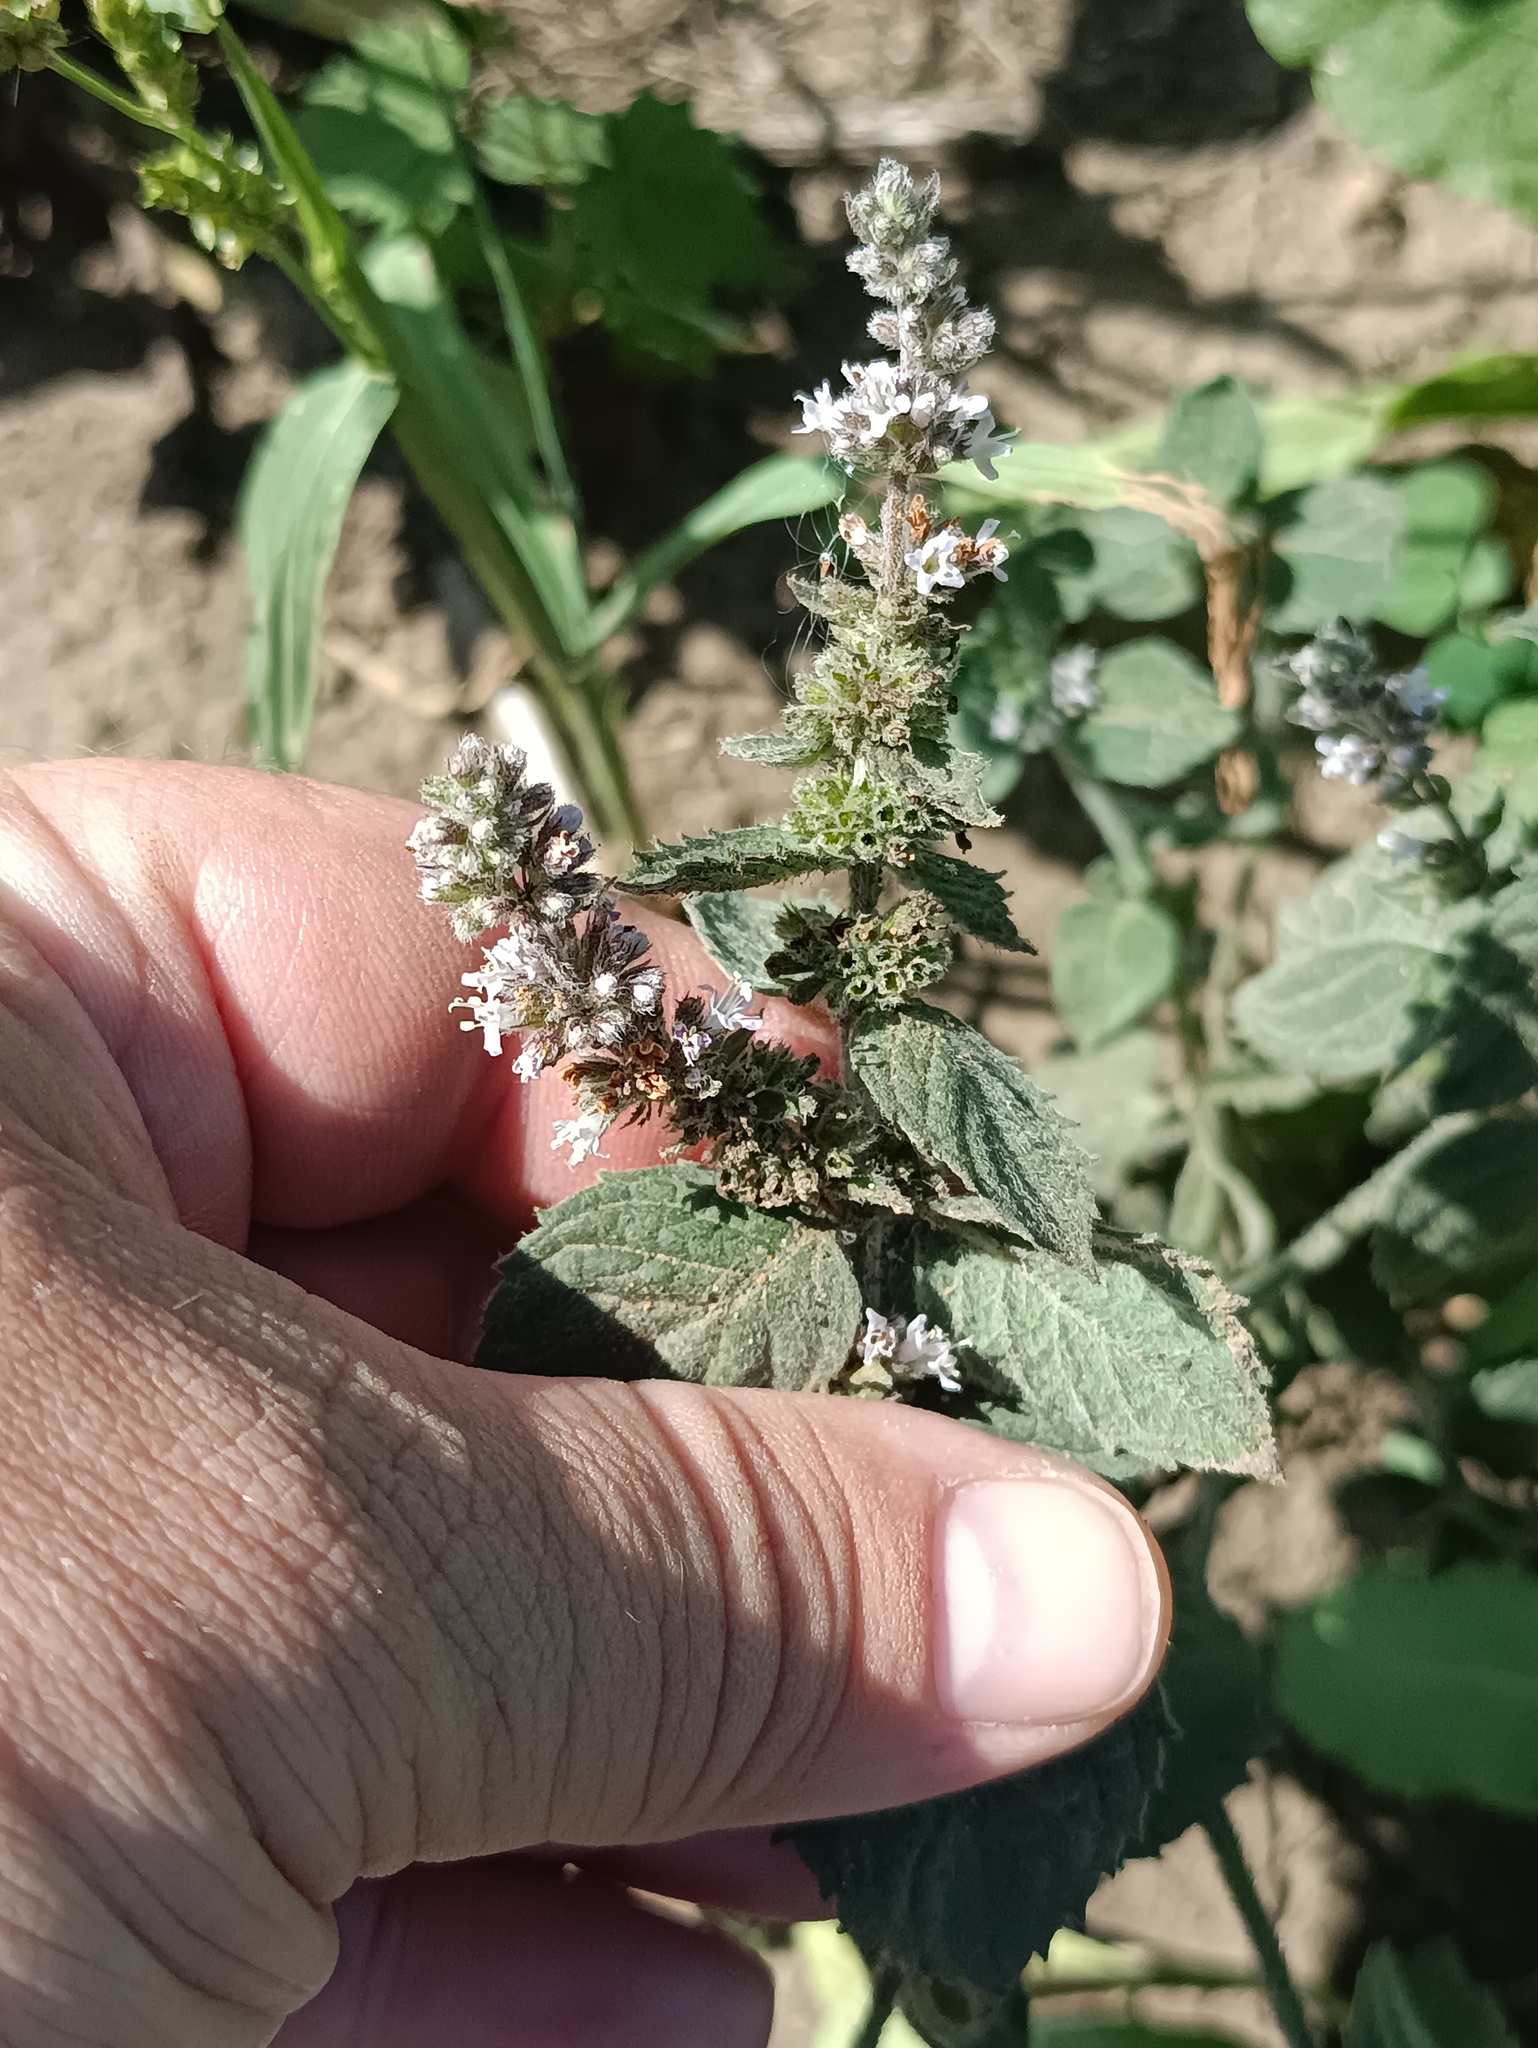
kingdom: Plantae
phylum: Tracheophyta
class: Magnoliopsida
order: Lamiales
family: Lamiaceae
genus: Mentha
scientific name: Mentha longifolia
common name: Horse mint
